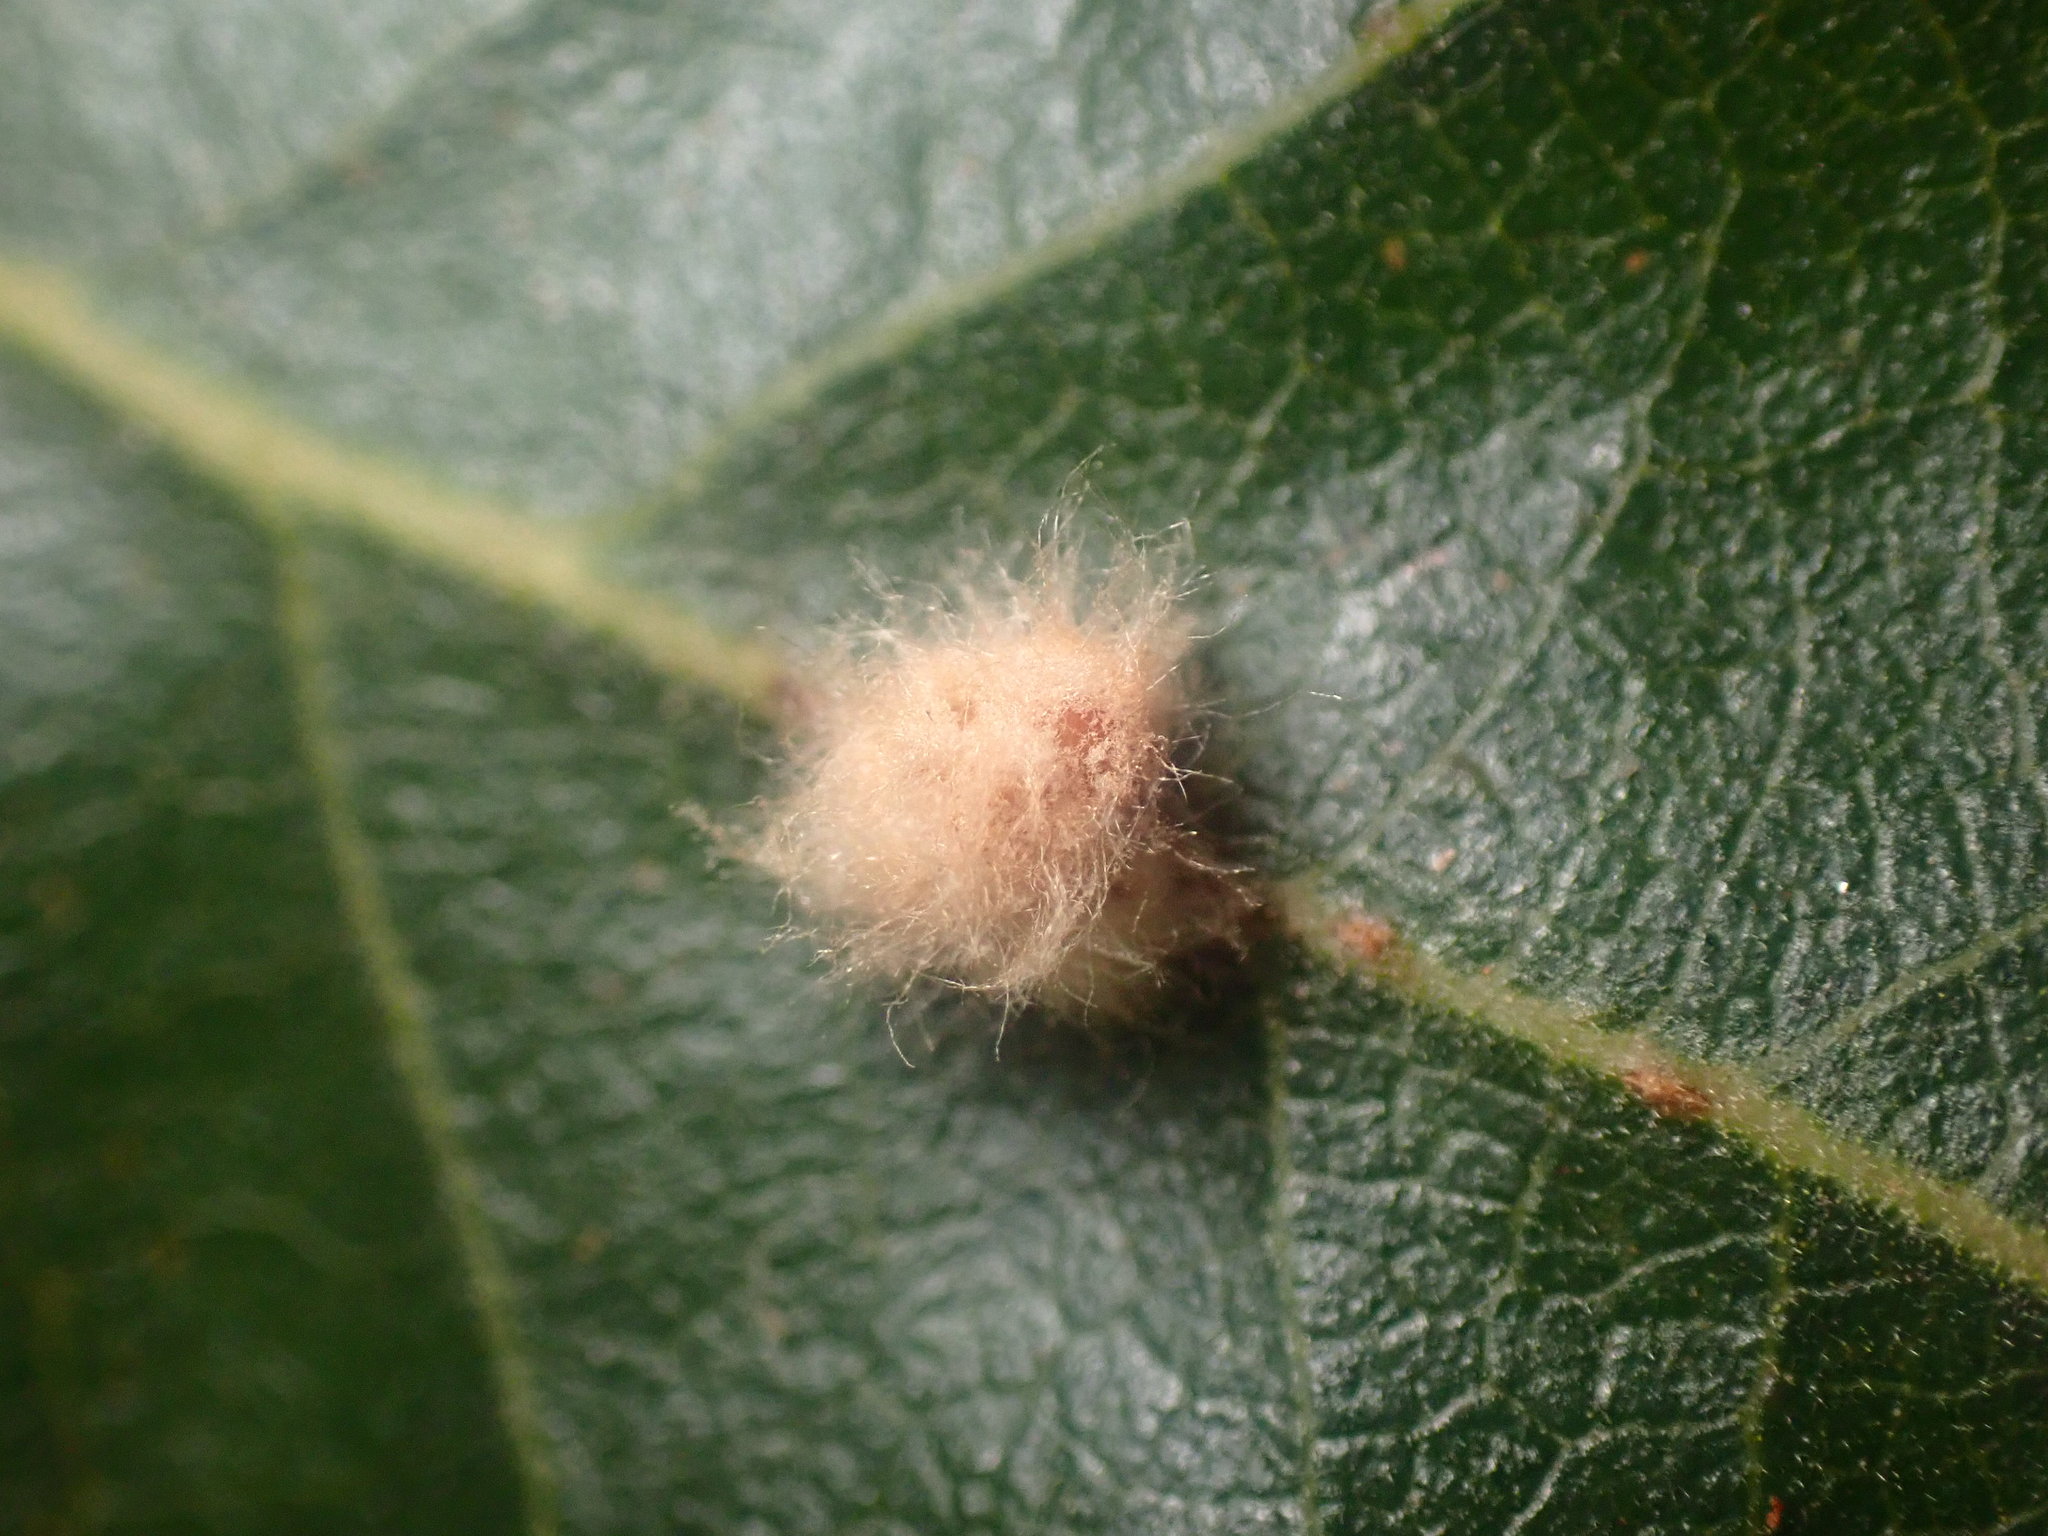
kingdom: Animalia
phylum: Arthropoda
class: Insecta
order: Hymenoptera
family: Cynipidae
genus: Andricus
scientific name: Andricus Druon fullawayi
